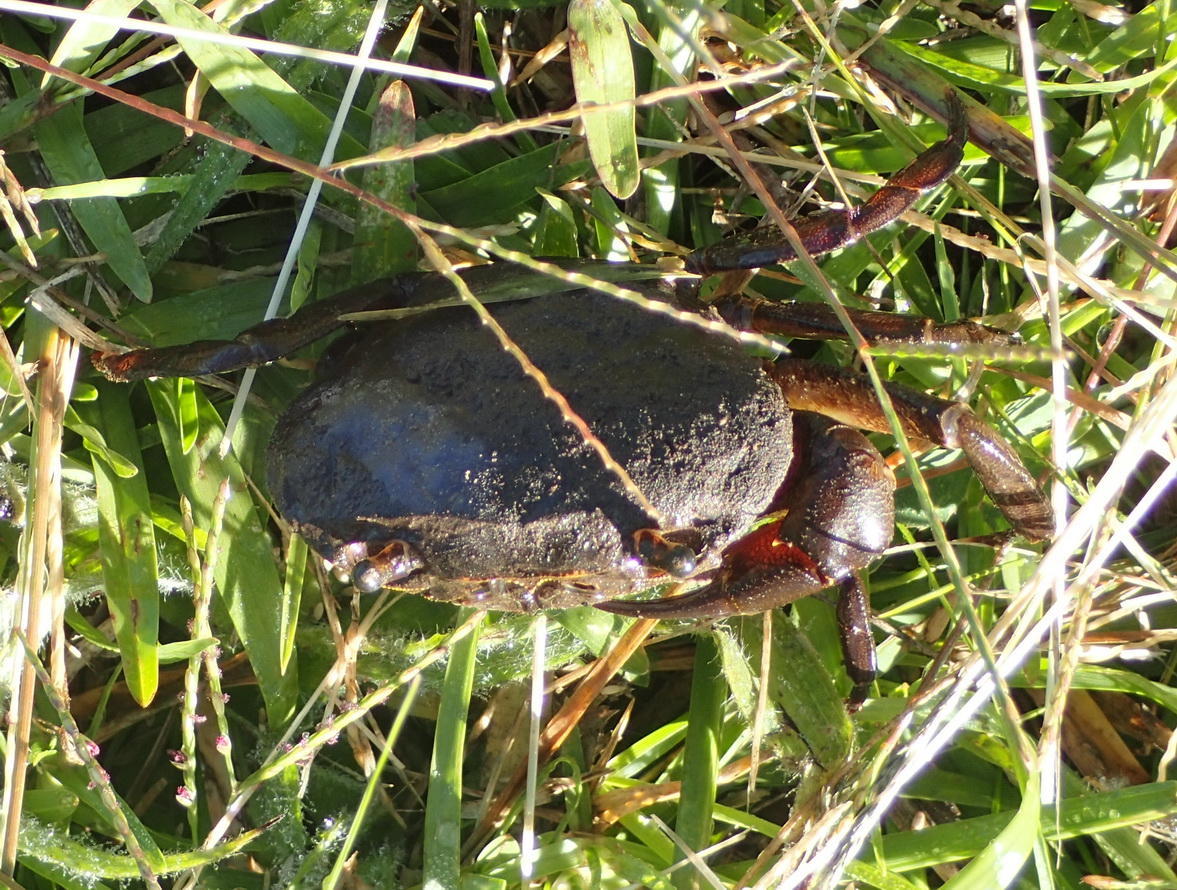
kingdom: Animalia
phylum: Arthropoda
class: Malacostraca
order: Decapoda
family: Potamonautidae
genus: Potamonautes
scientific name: Potamonautes barbarai
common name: Barbara's crab
